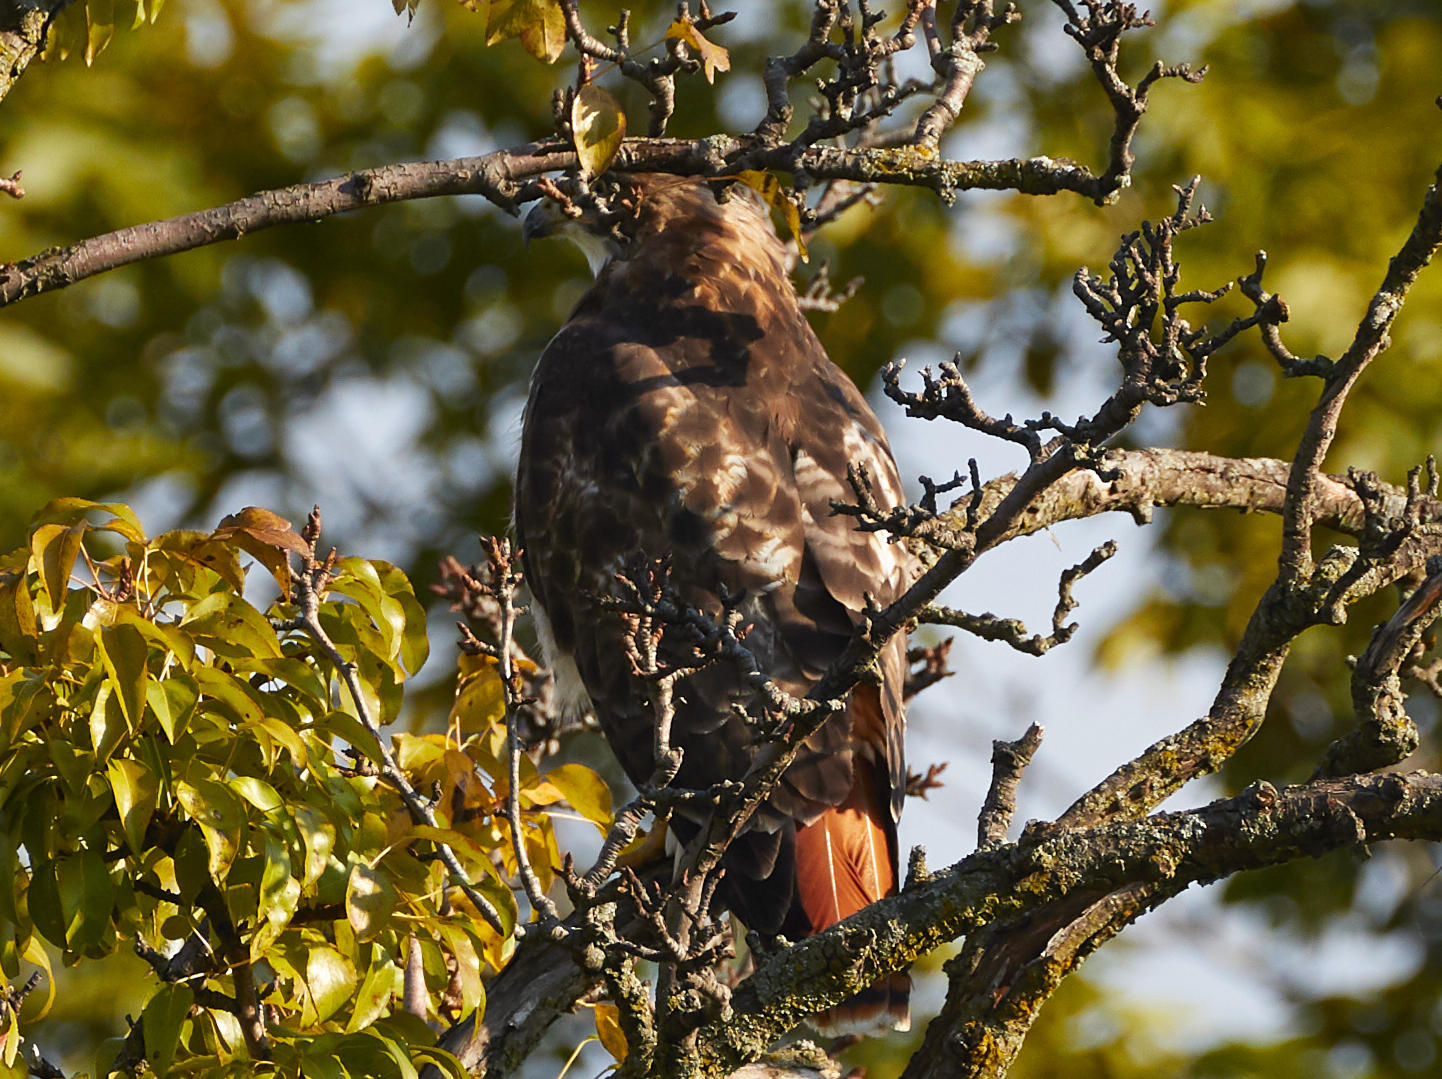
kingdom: Animalia
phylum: Chordata
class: Aves
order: Accipitriformes
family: Accipitridae
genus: Buteo
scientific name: Buteo jamaicensis
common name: Red-tailed hawk
